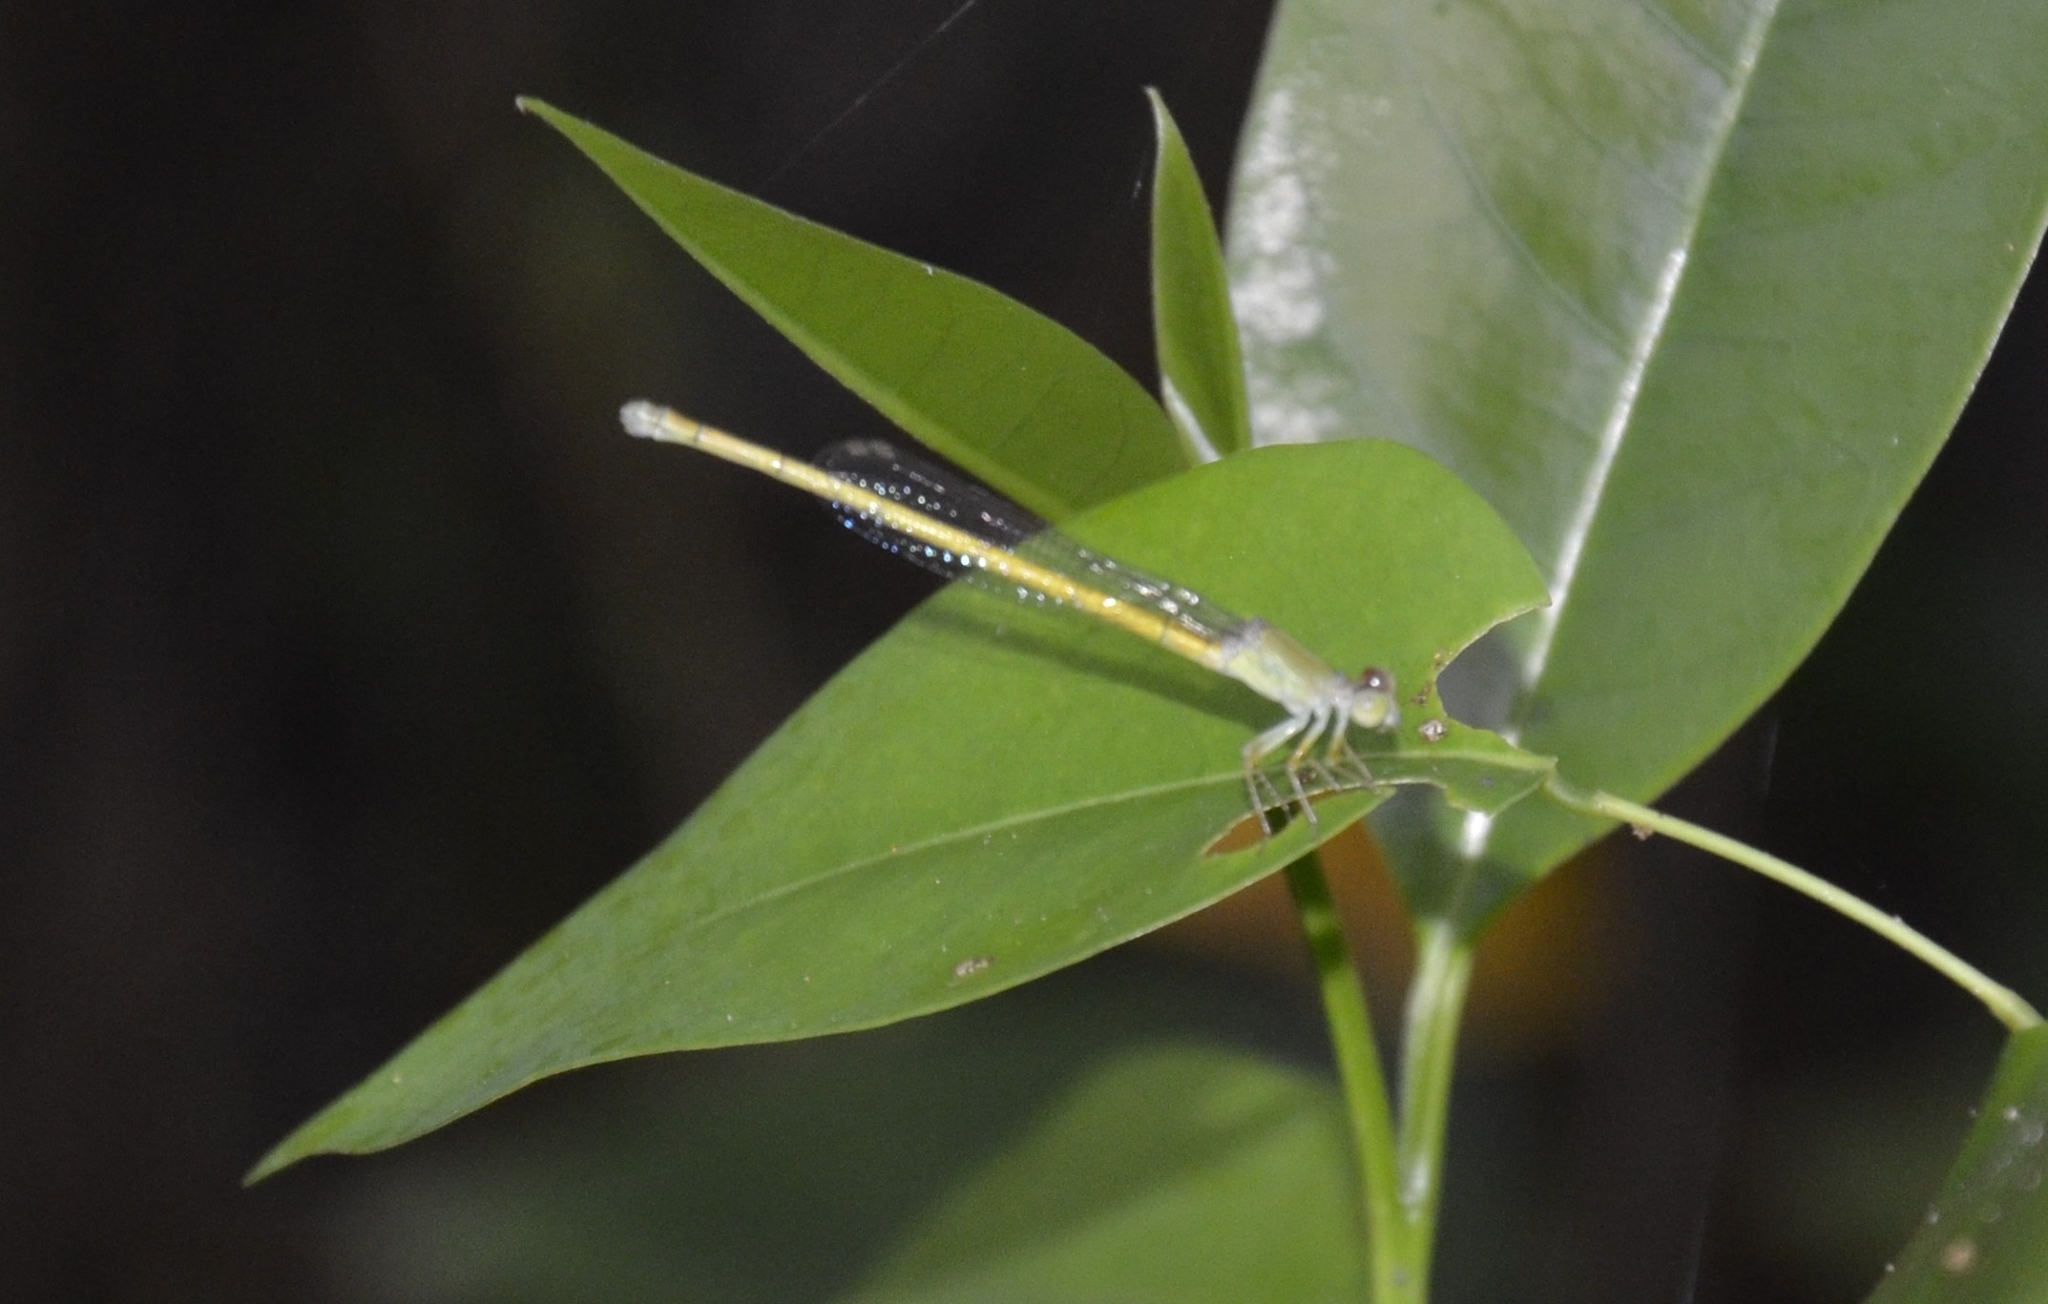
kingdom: Animalia
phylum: Arthropoda
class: Insecta
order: Odonata
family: Coenagrionidae
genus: Ceriagrion
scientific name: Ceriagrion coromandelianum
